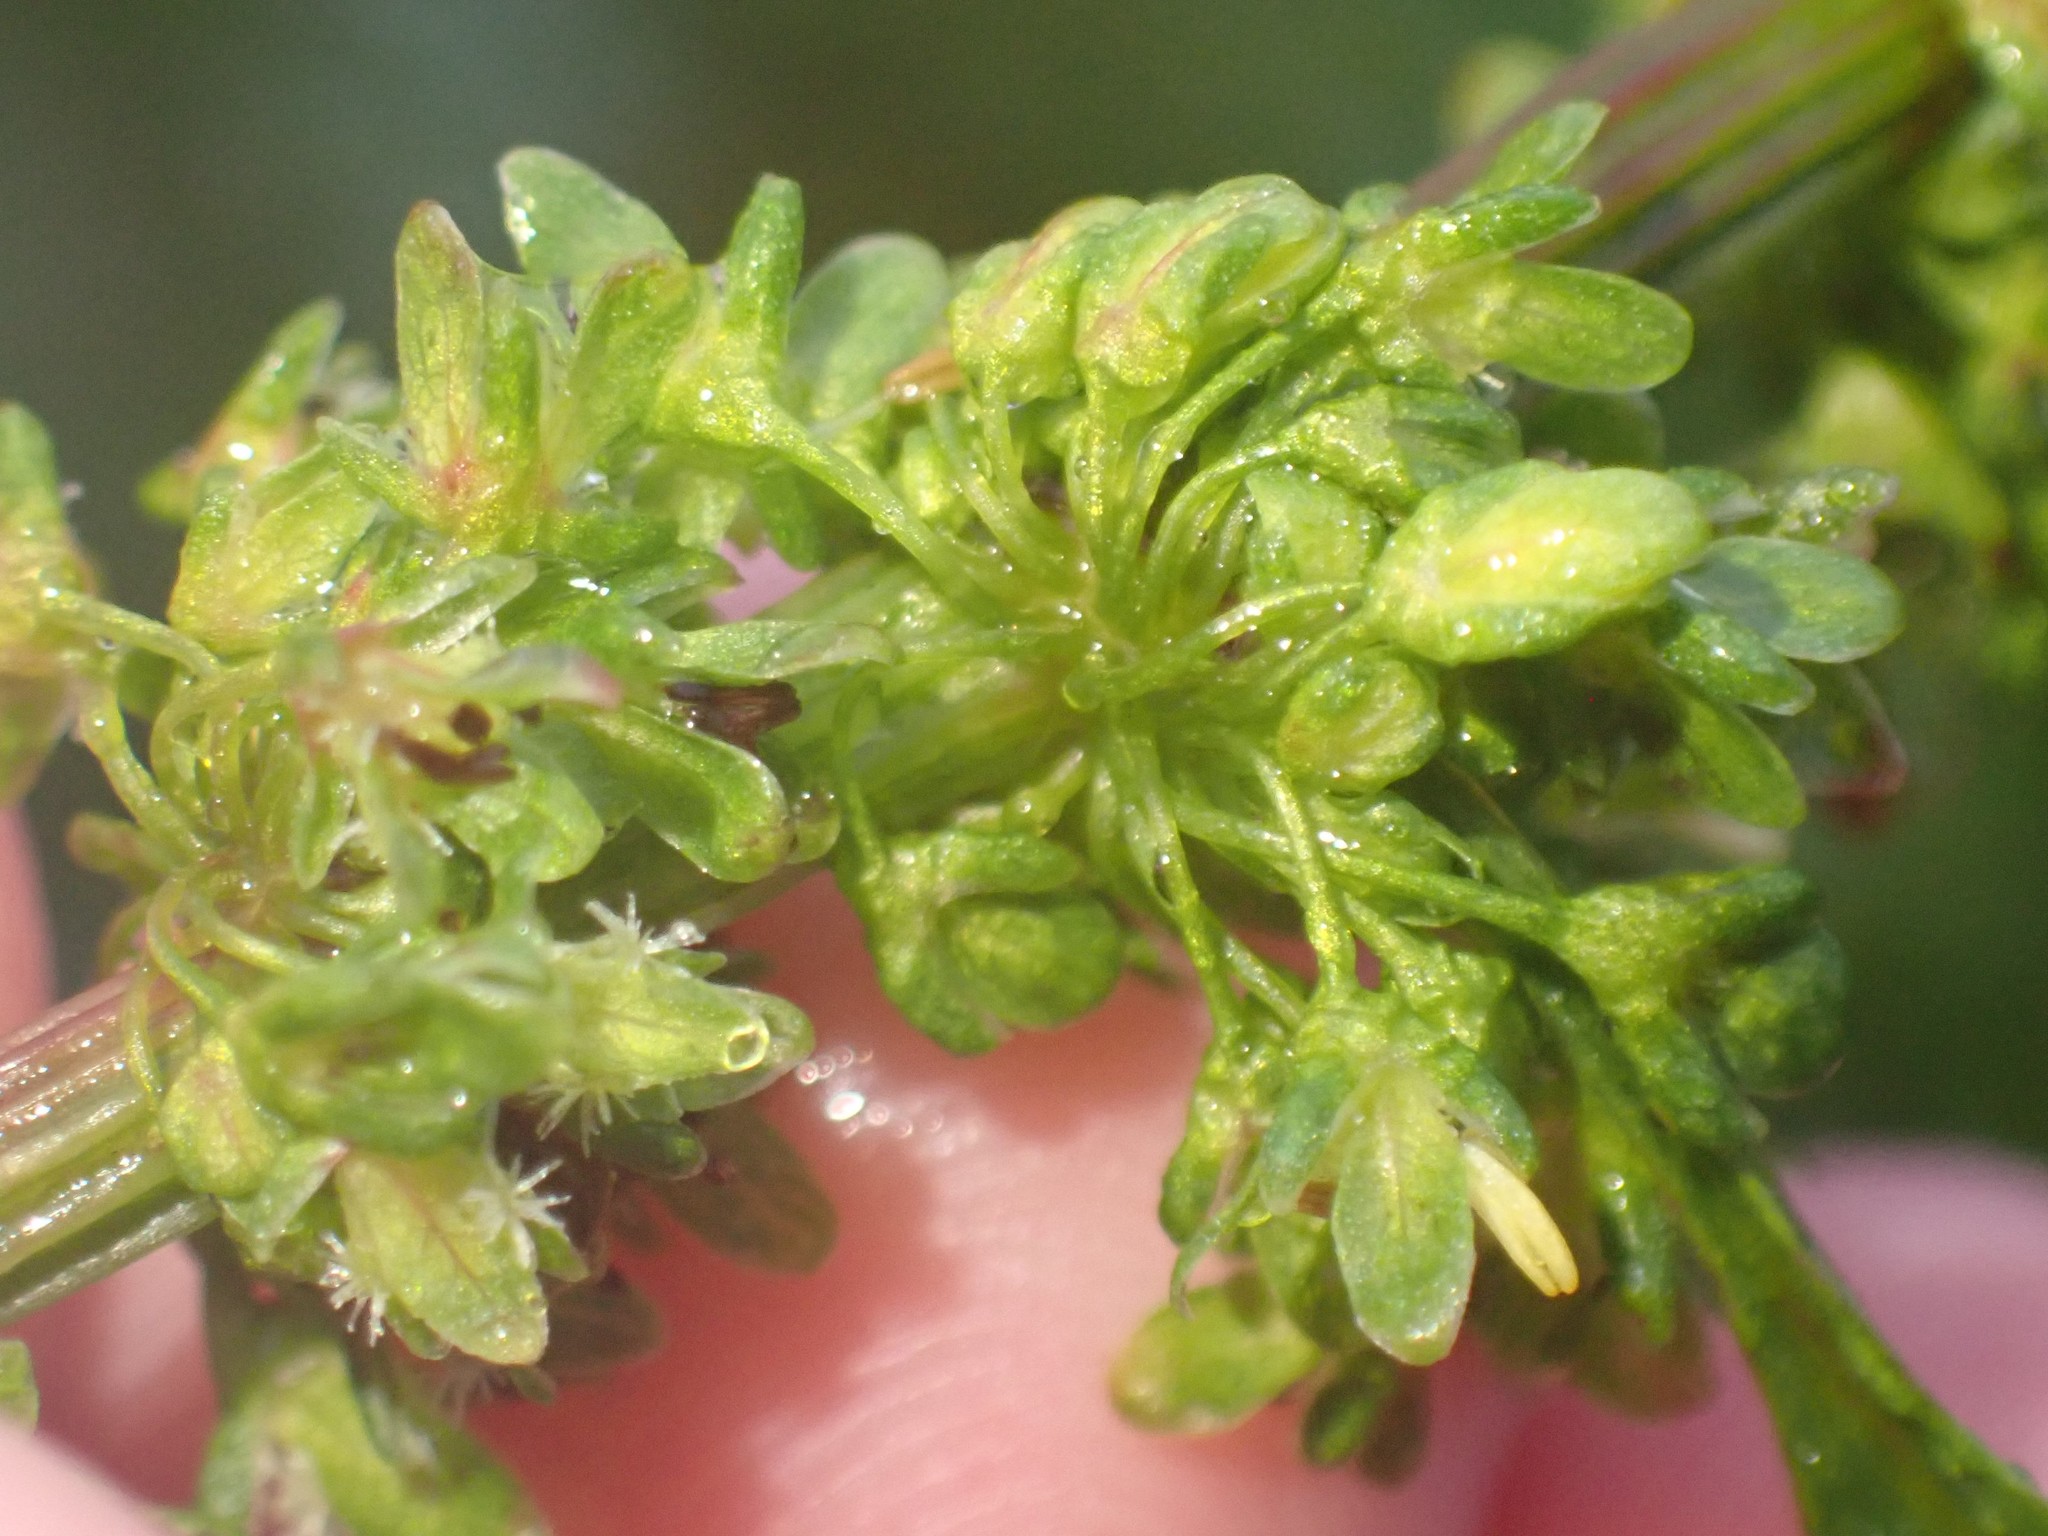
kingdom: Plantae
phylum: Tracheophyta
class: Magnoliopsida
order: Caryophyllales
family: Polygonaceae
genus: Rumex
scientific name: Rumex obtusifolius
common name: Bitter dock
